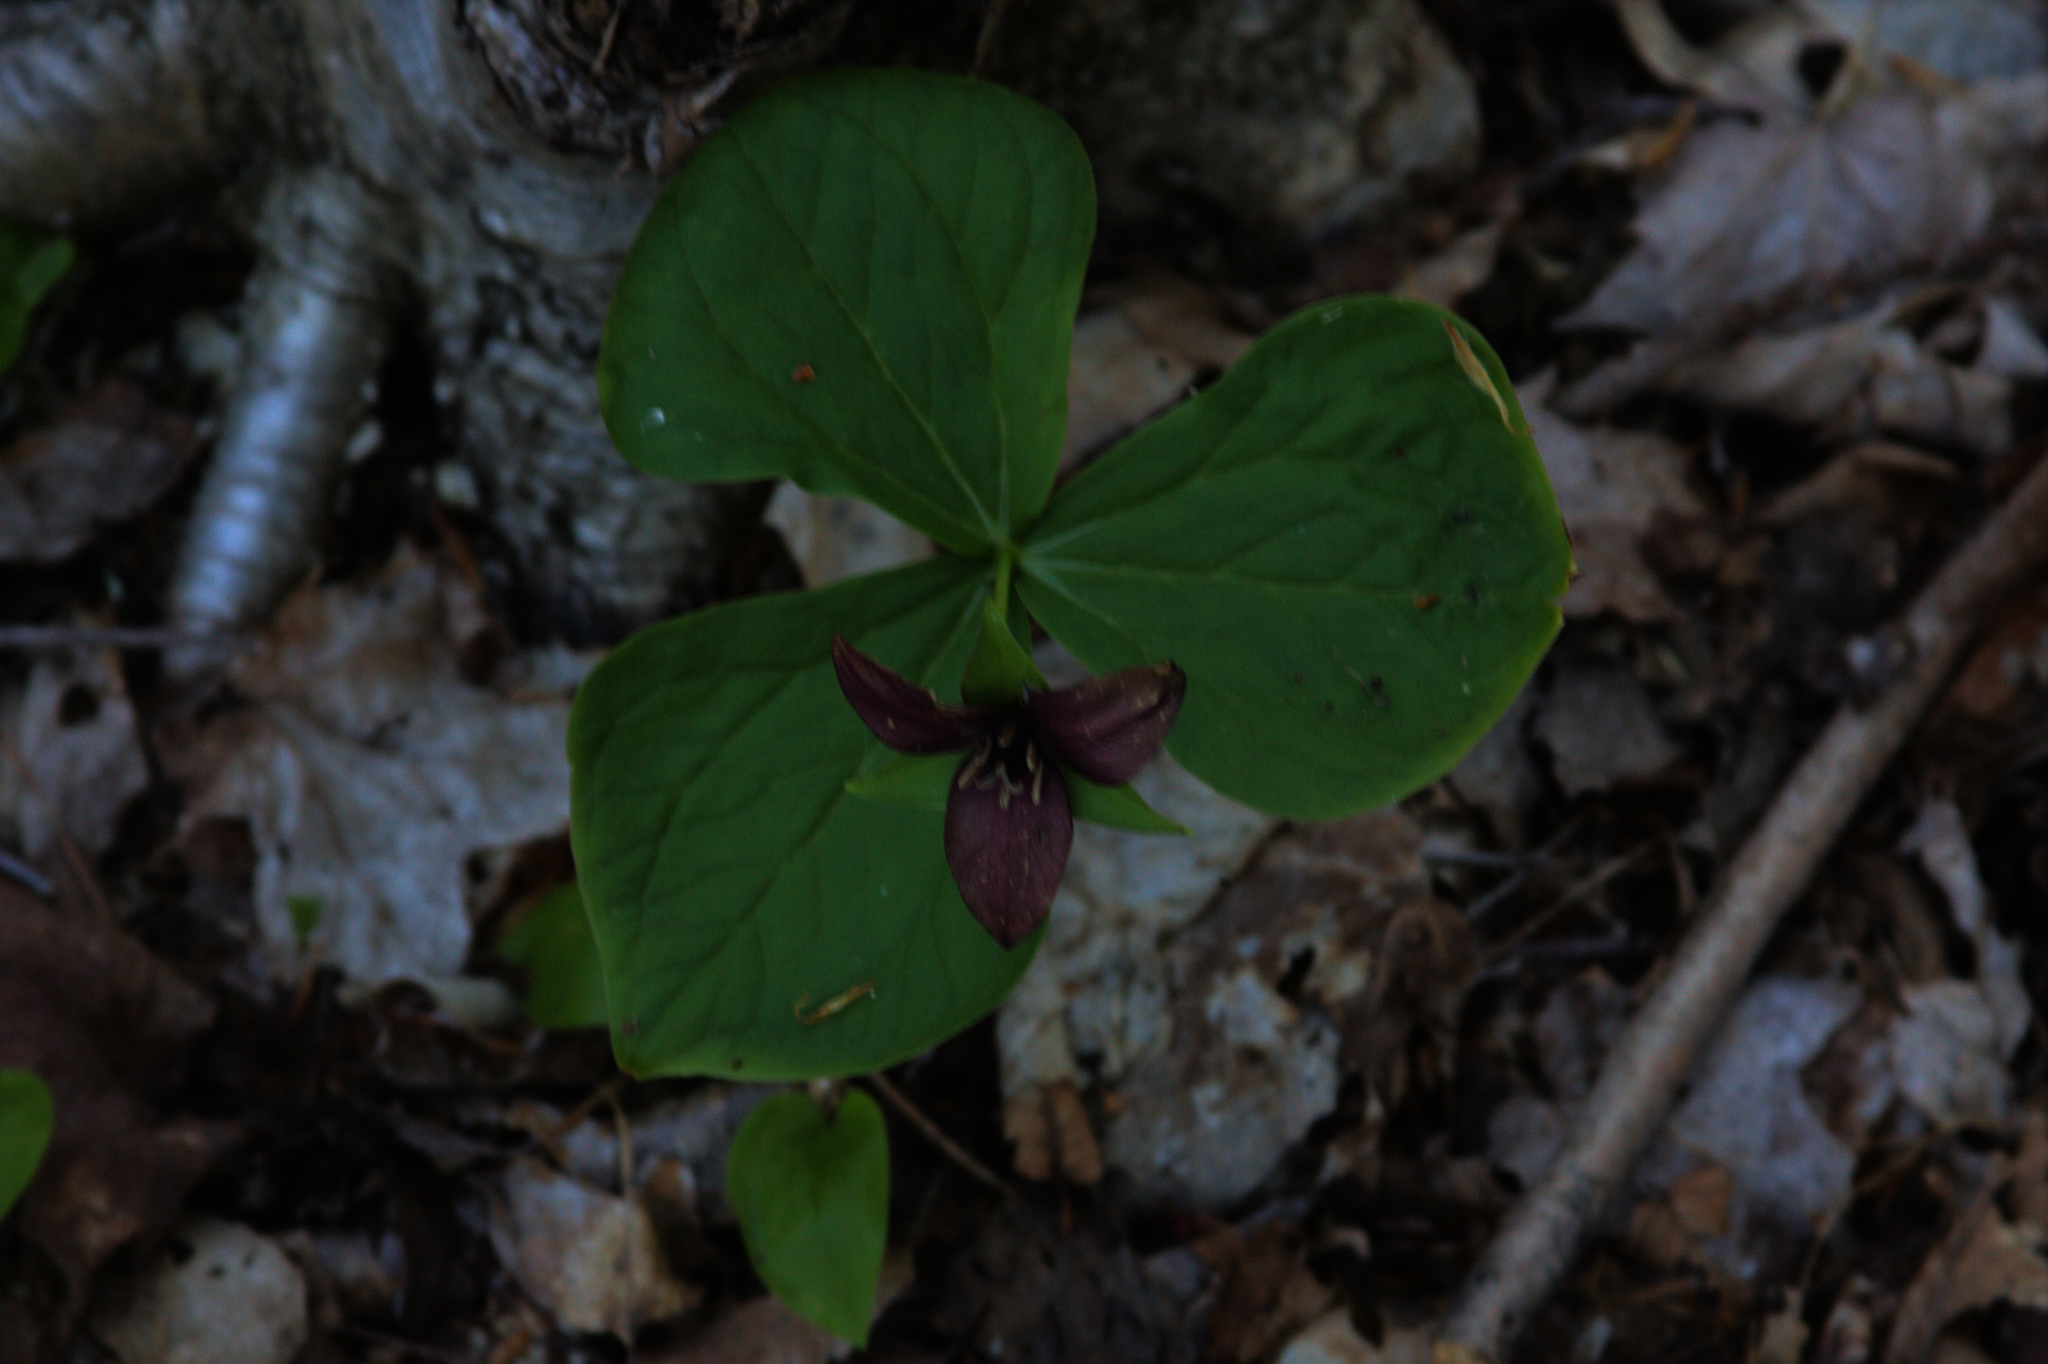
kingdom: Plantae
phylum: Tracheophyta
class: Liliopsida
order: Liliales
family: Melanthiaceae
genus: Trillium
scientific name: Trillium erectum
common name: Purple trillium
